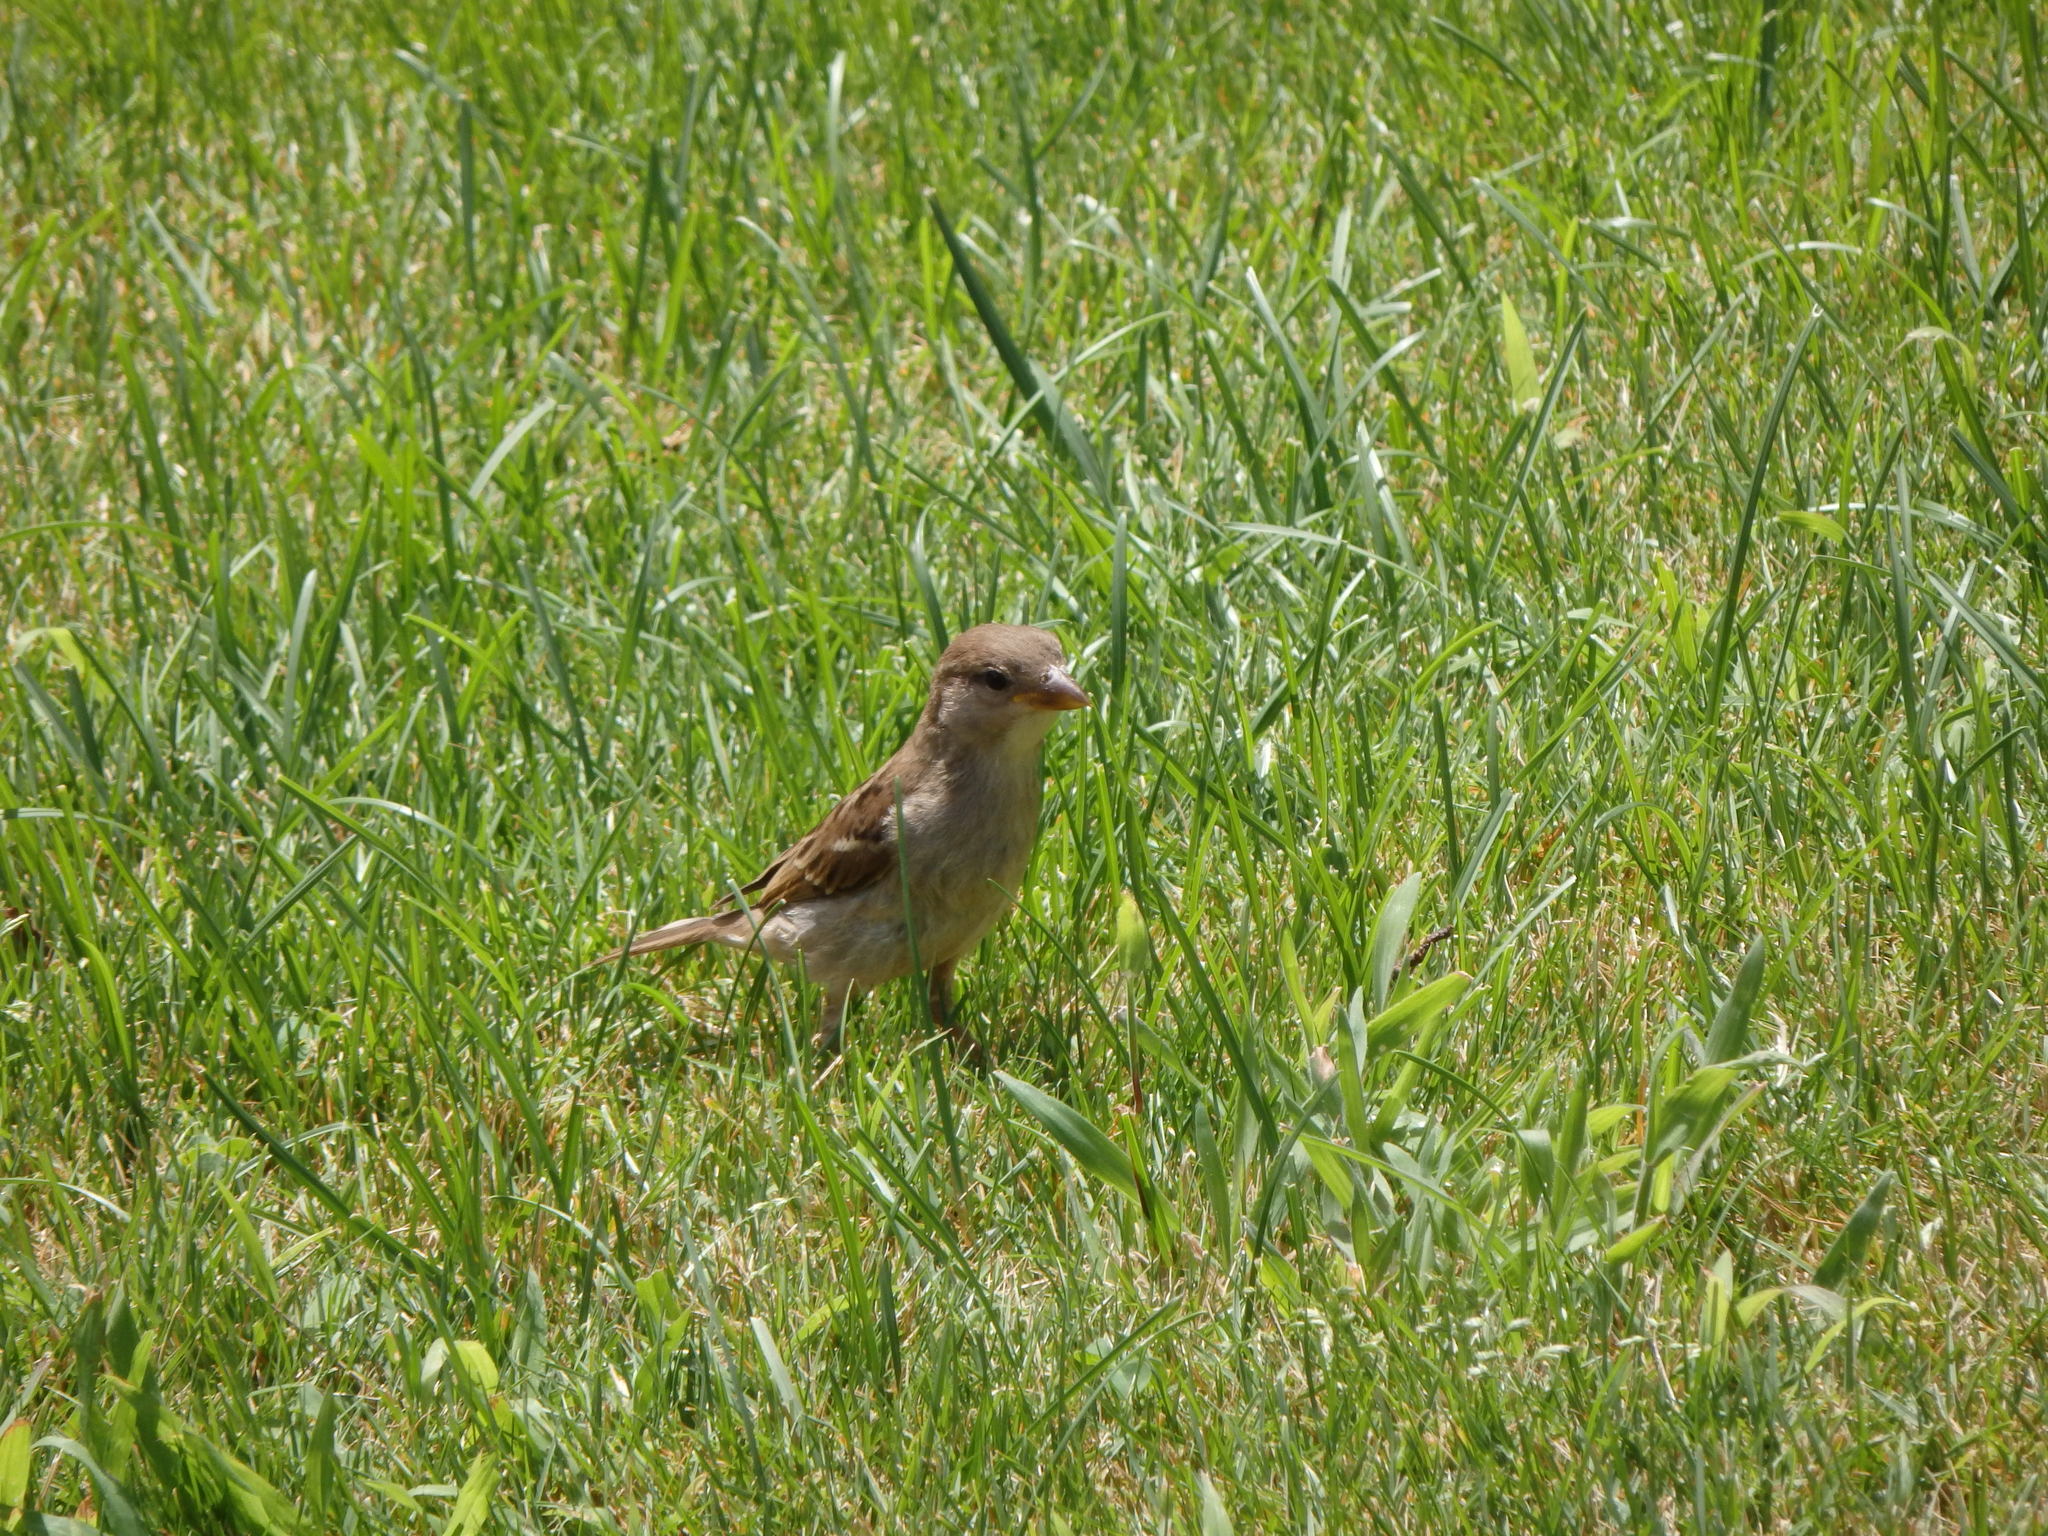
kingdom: Animalia
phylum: Chordata
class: Aves
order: Passeriformes
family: Passeridae
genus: Passer
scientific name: Passer domesticus
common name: House sparrow
